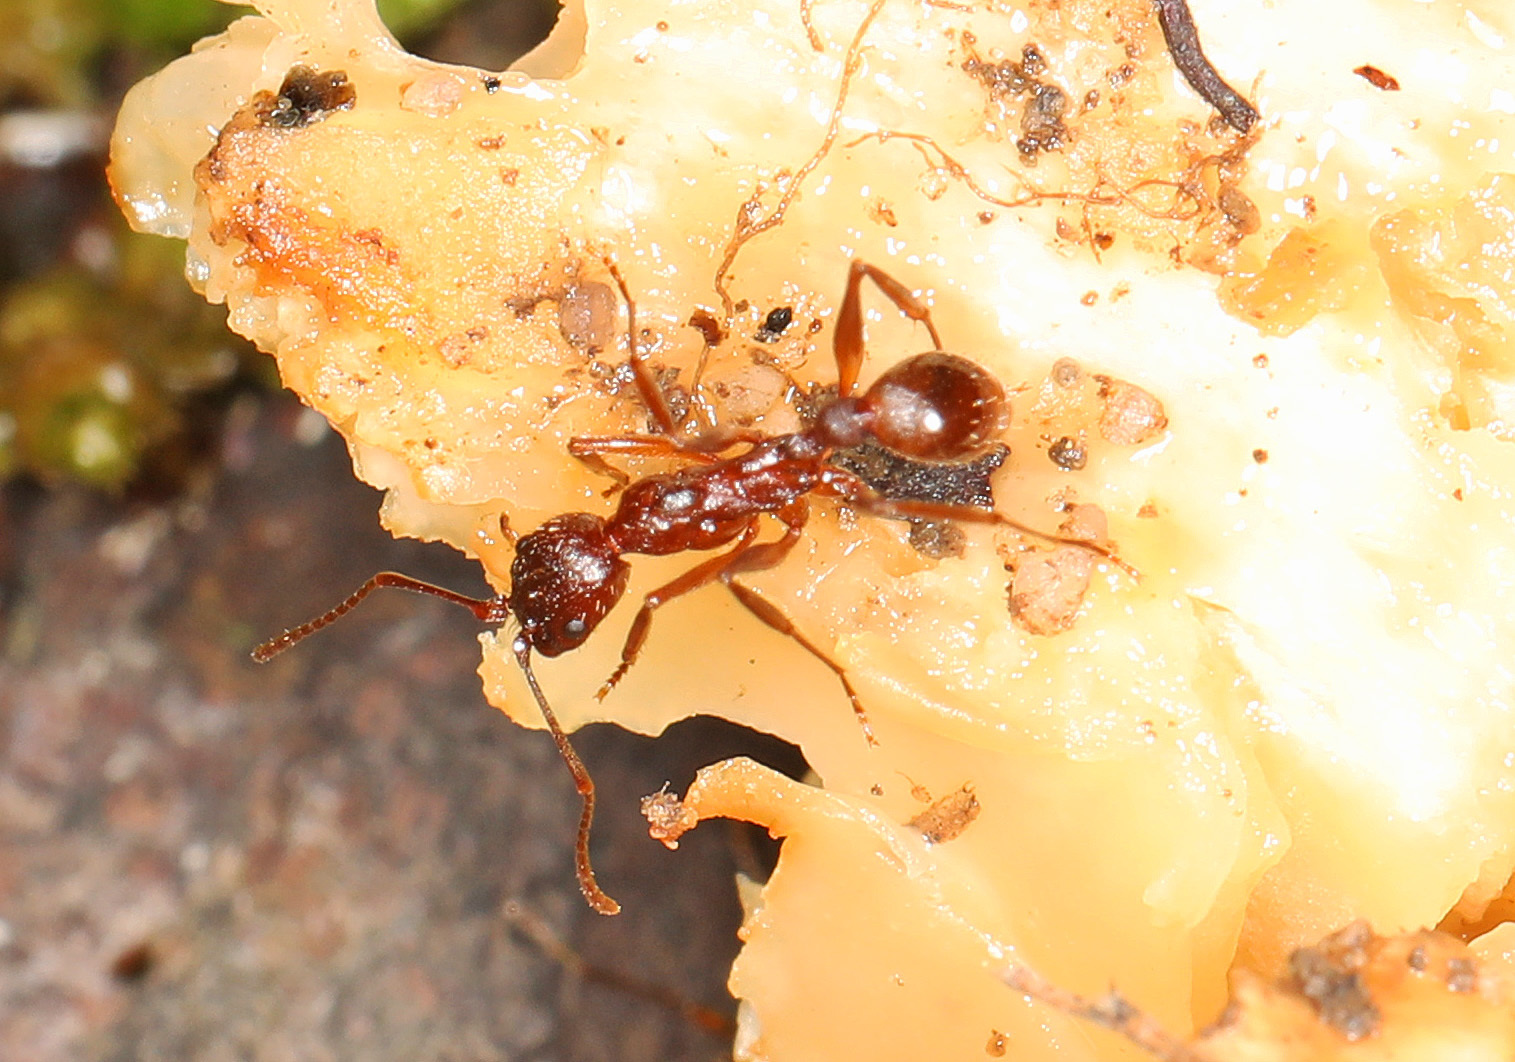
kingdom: Animalia
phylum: Arthropoda
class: Insecta
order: Hymenoptera
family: Formicidae
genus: Aphaenogaster
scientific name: Aphaenogaster treatae
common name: Treat's collared ant
